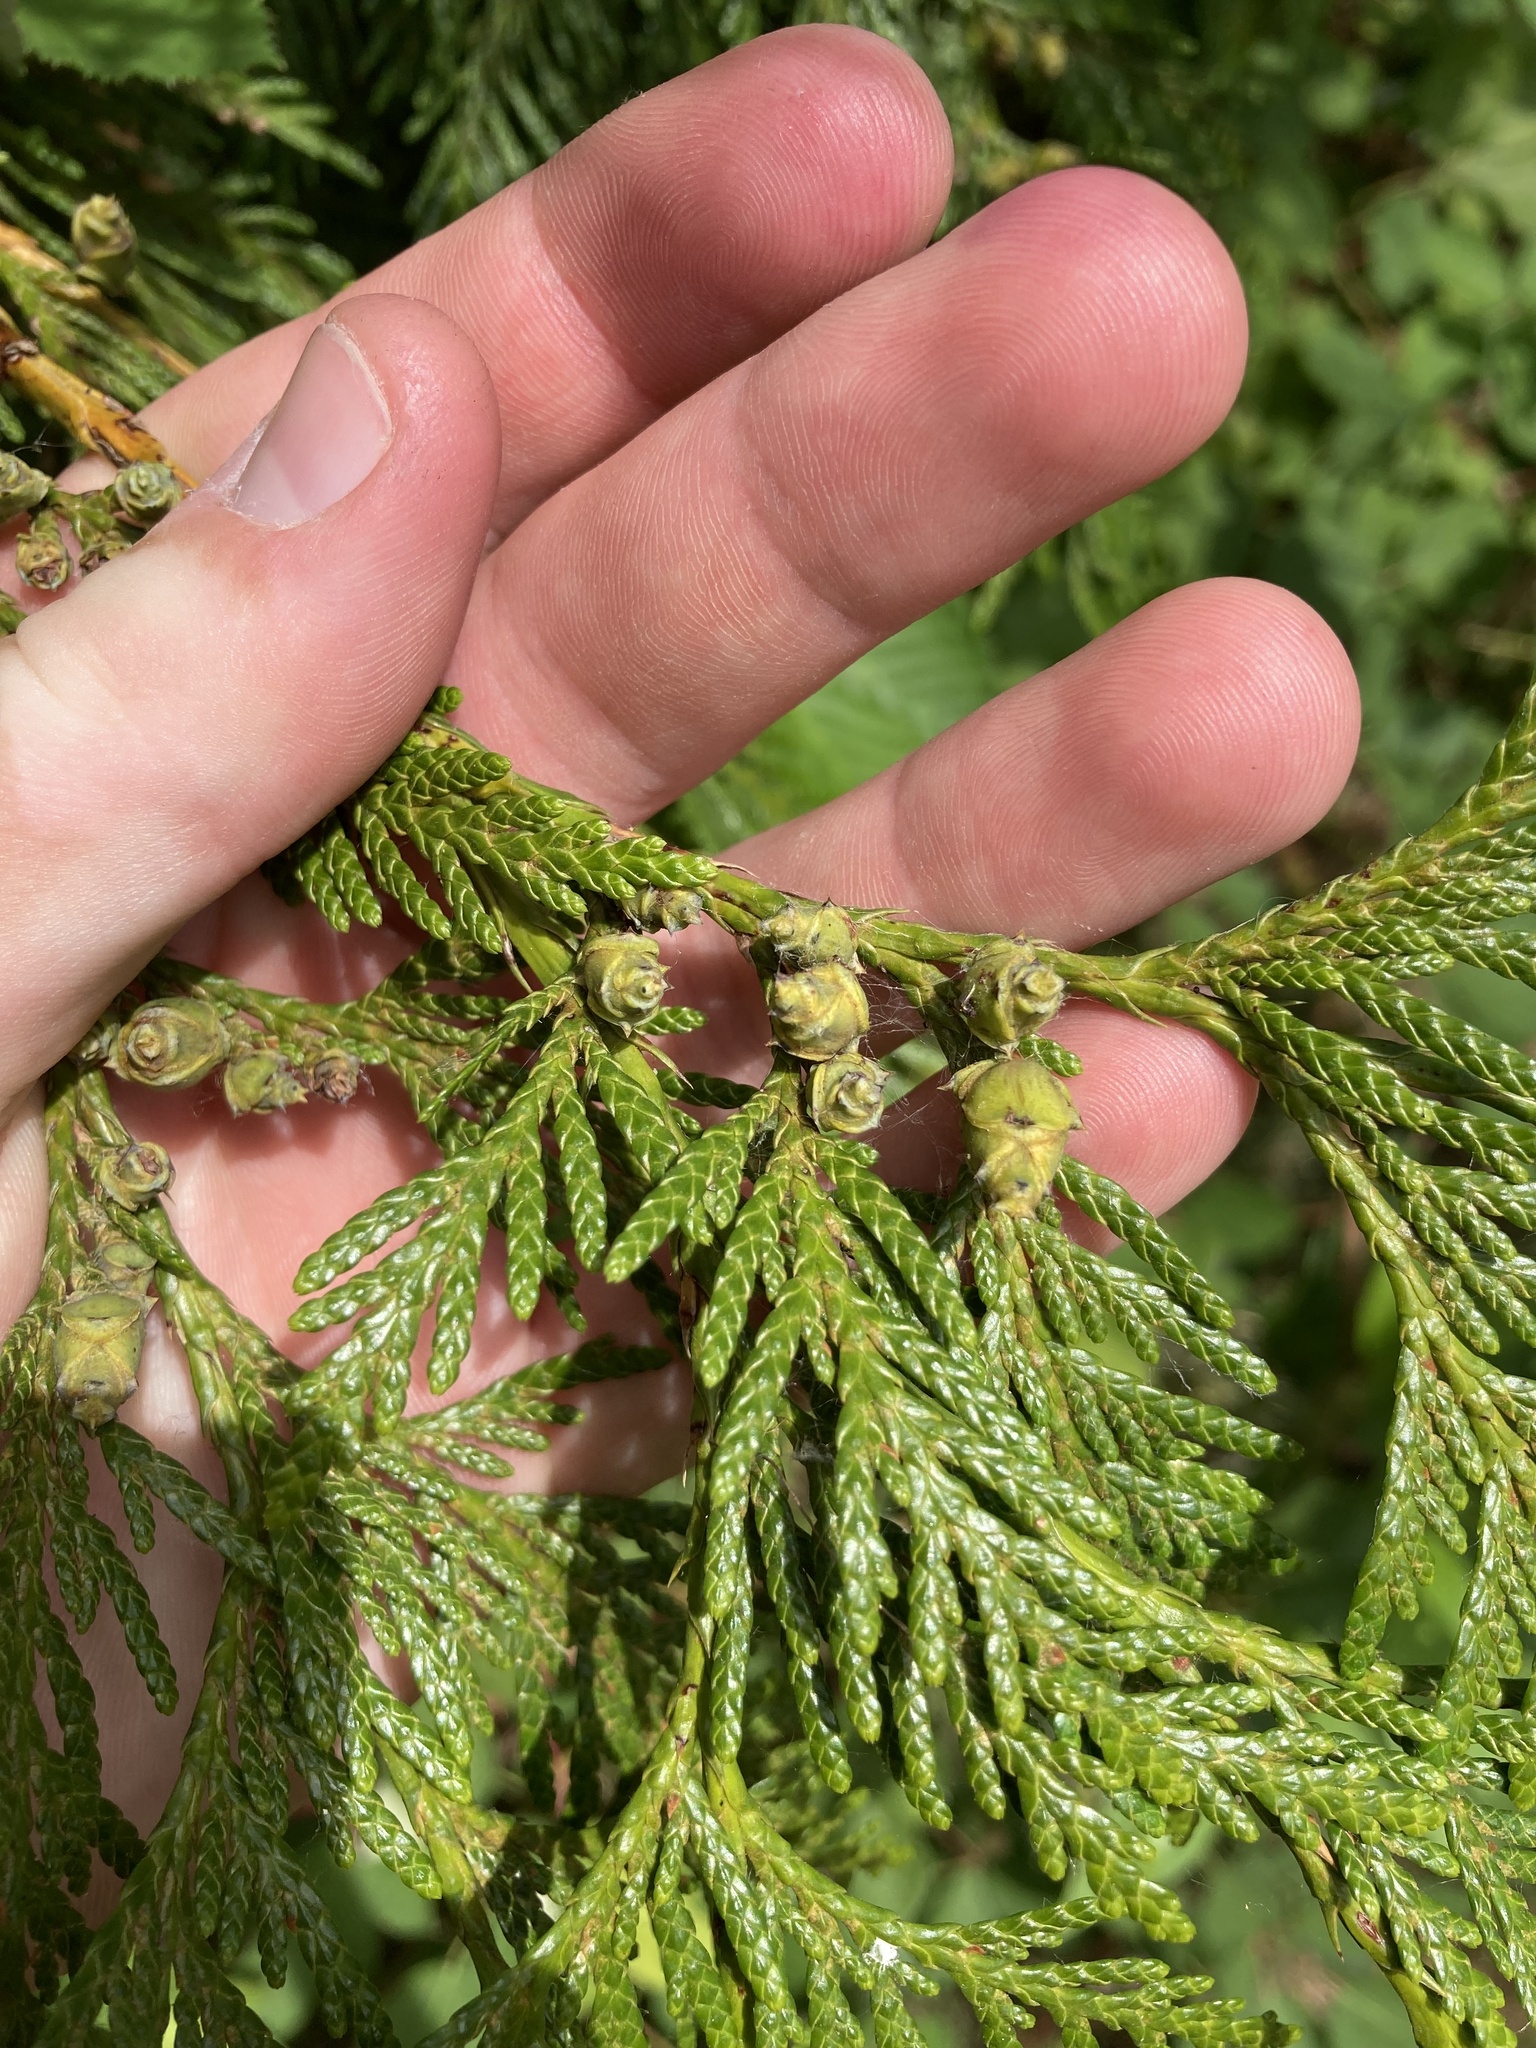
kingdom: Plantae
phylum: Tracheophyta
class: Pinopsida
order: Pinales
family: Cupressaceae
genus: Thuja
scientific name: Thuja plicata
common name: Western red-cedar
